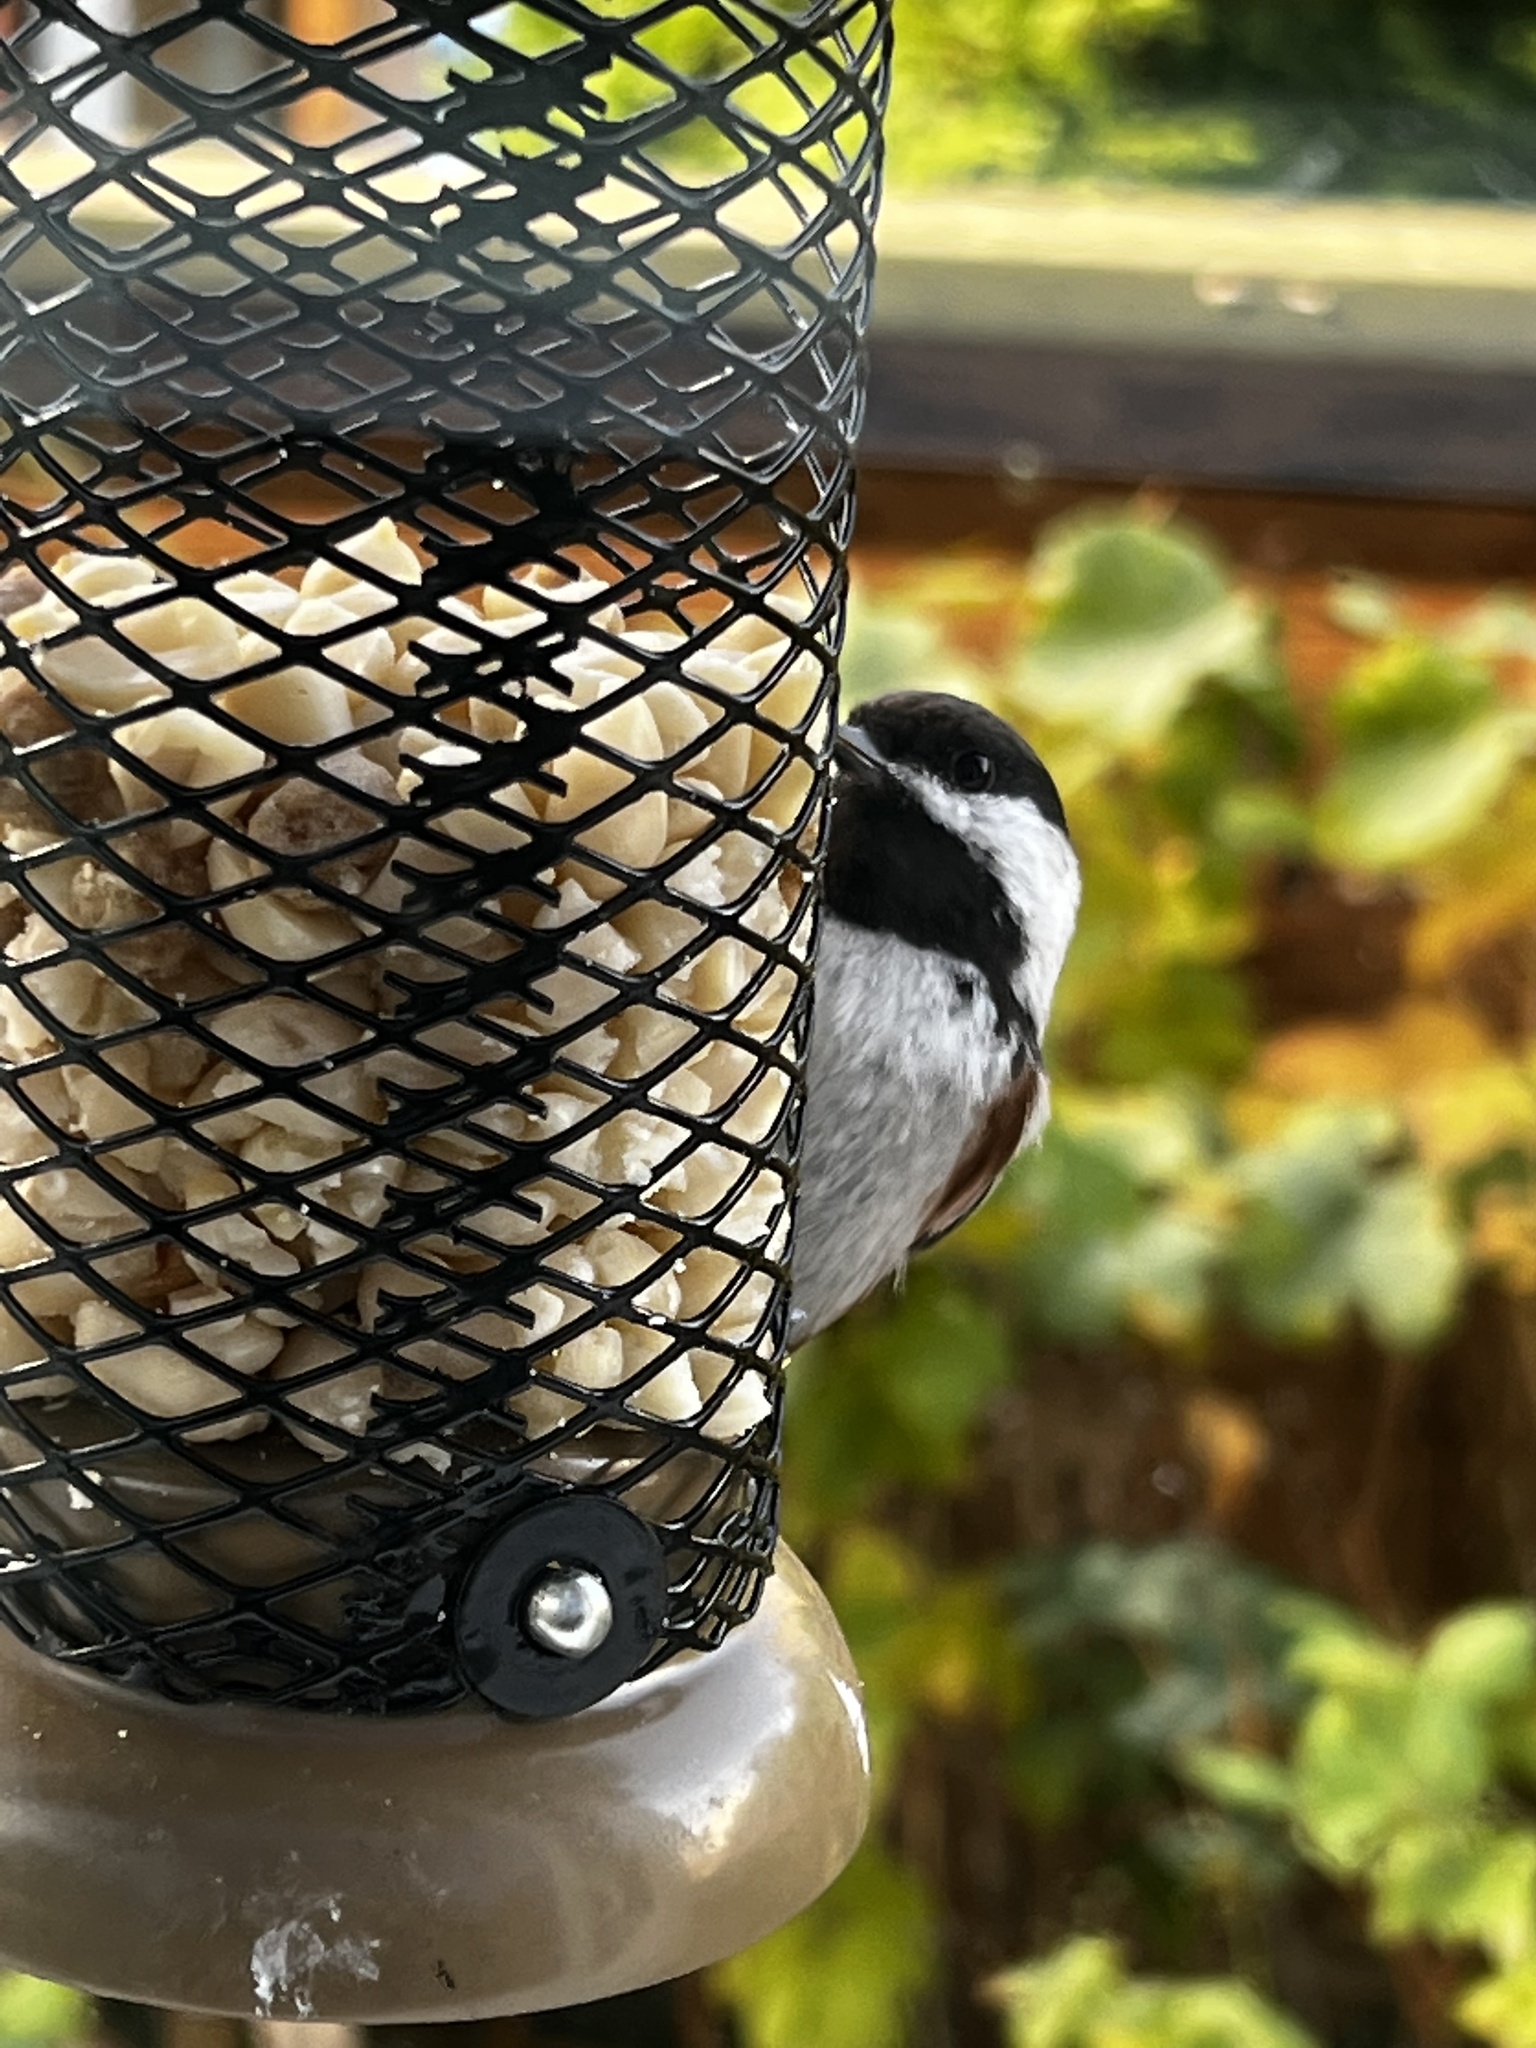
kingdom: Animalia
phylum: Chordata
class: Aves
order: Passeriformes
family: Paridae
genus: Poecile
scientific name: Poecile rufescens
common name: Chestnut-backed chickadee
